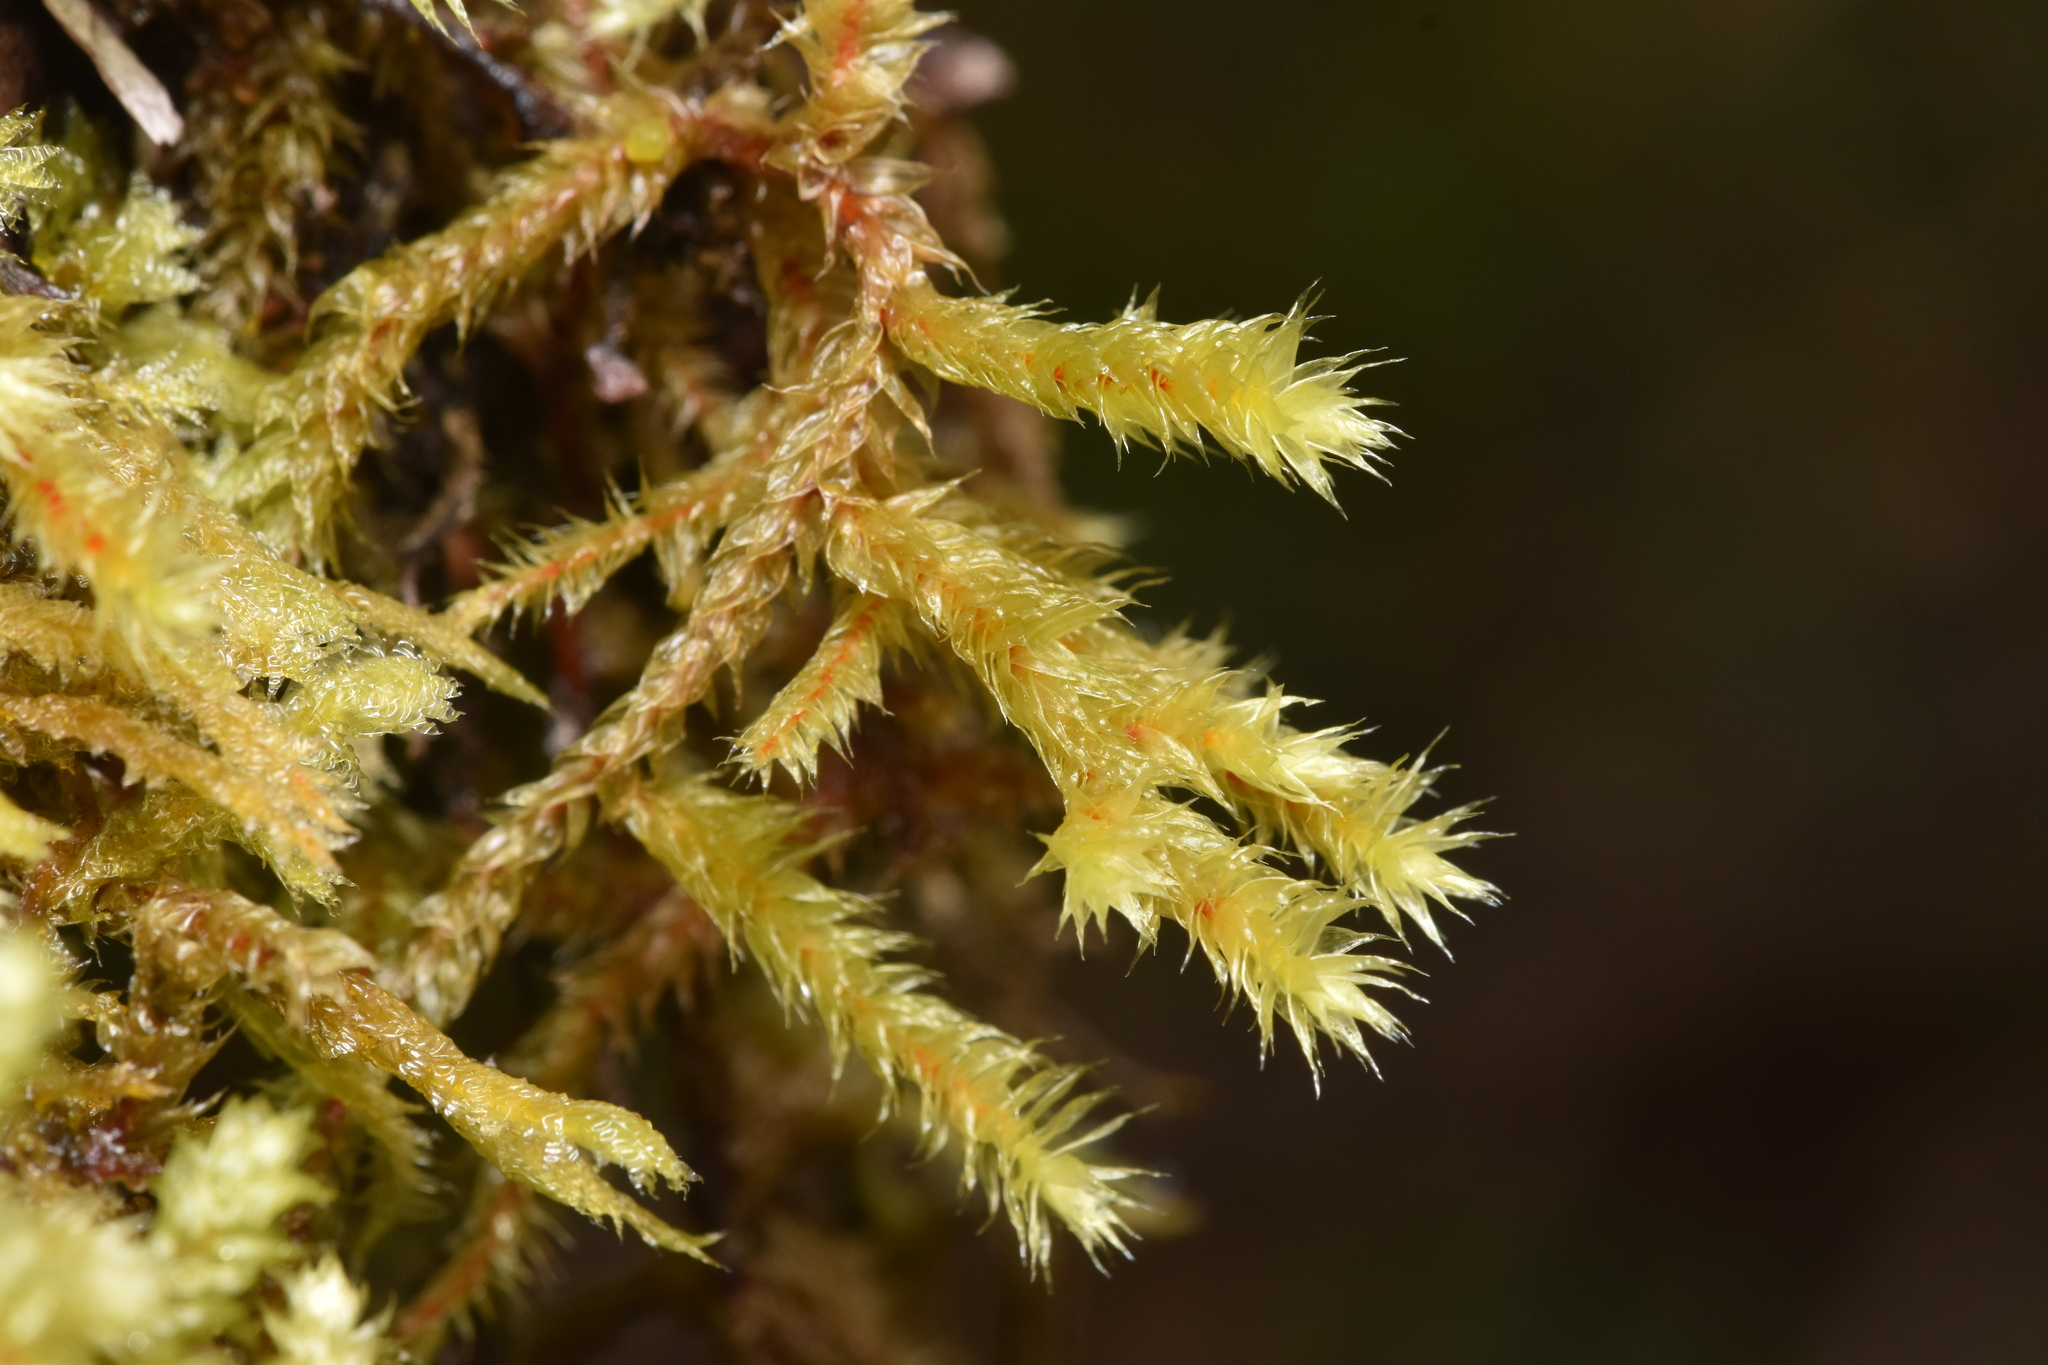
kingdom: Plantae
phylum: Bryophyta
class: Bryopsida
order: Hypnales
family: Antitrichiaceae
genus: Antitrichia
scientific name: Antitrichia curtipendula
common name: Pendulous wing-moss
